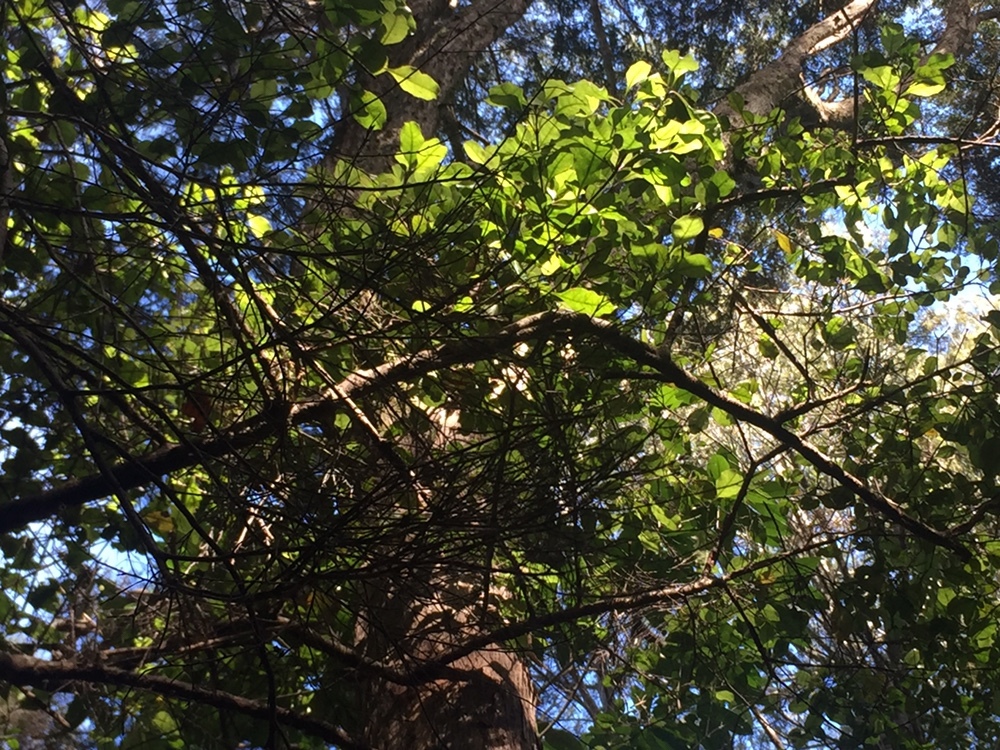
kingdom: Plantae
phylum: Tracheophyta
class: Magnoliopsida
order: Gentianales
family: Rubiaceae
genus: Coprosma
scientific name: Coprosma arborea
